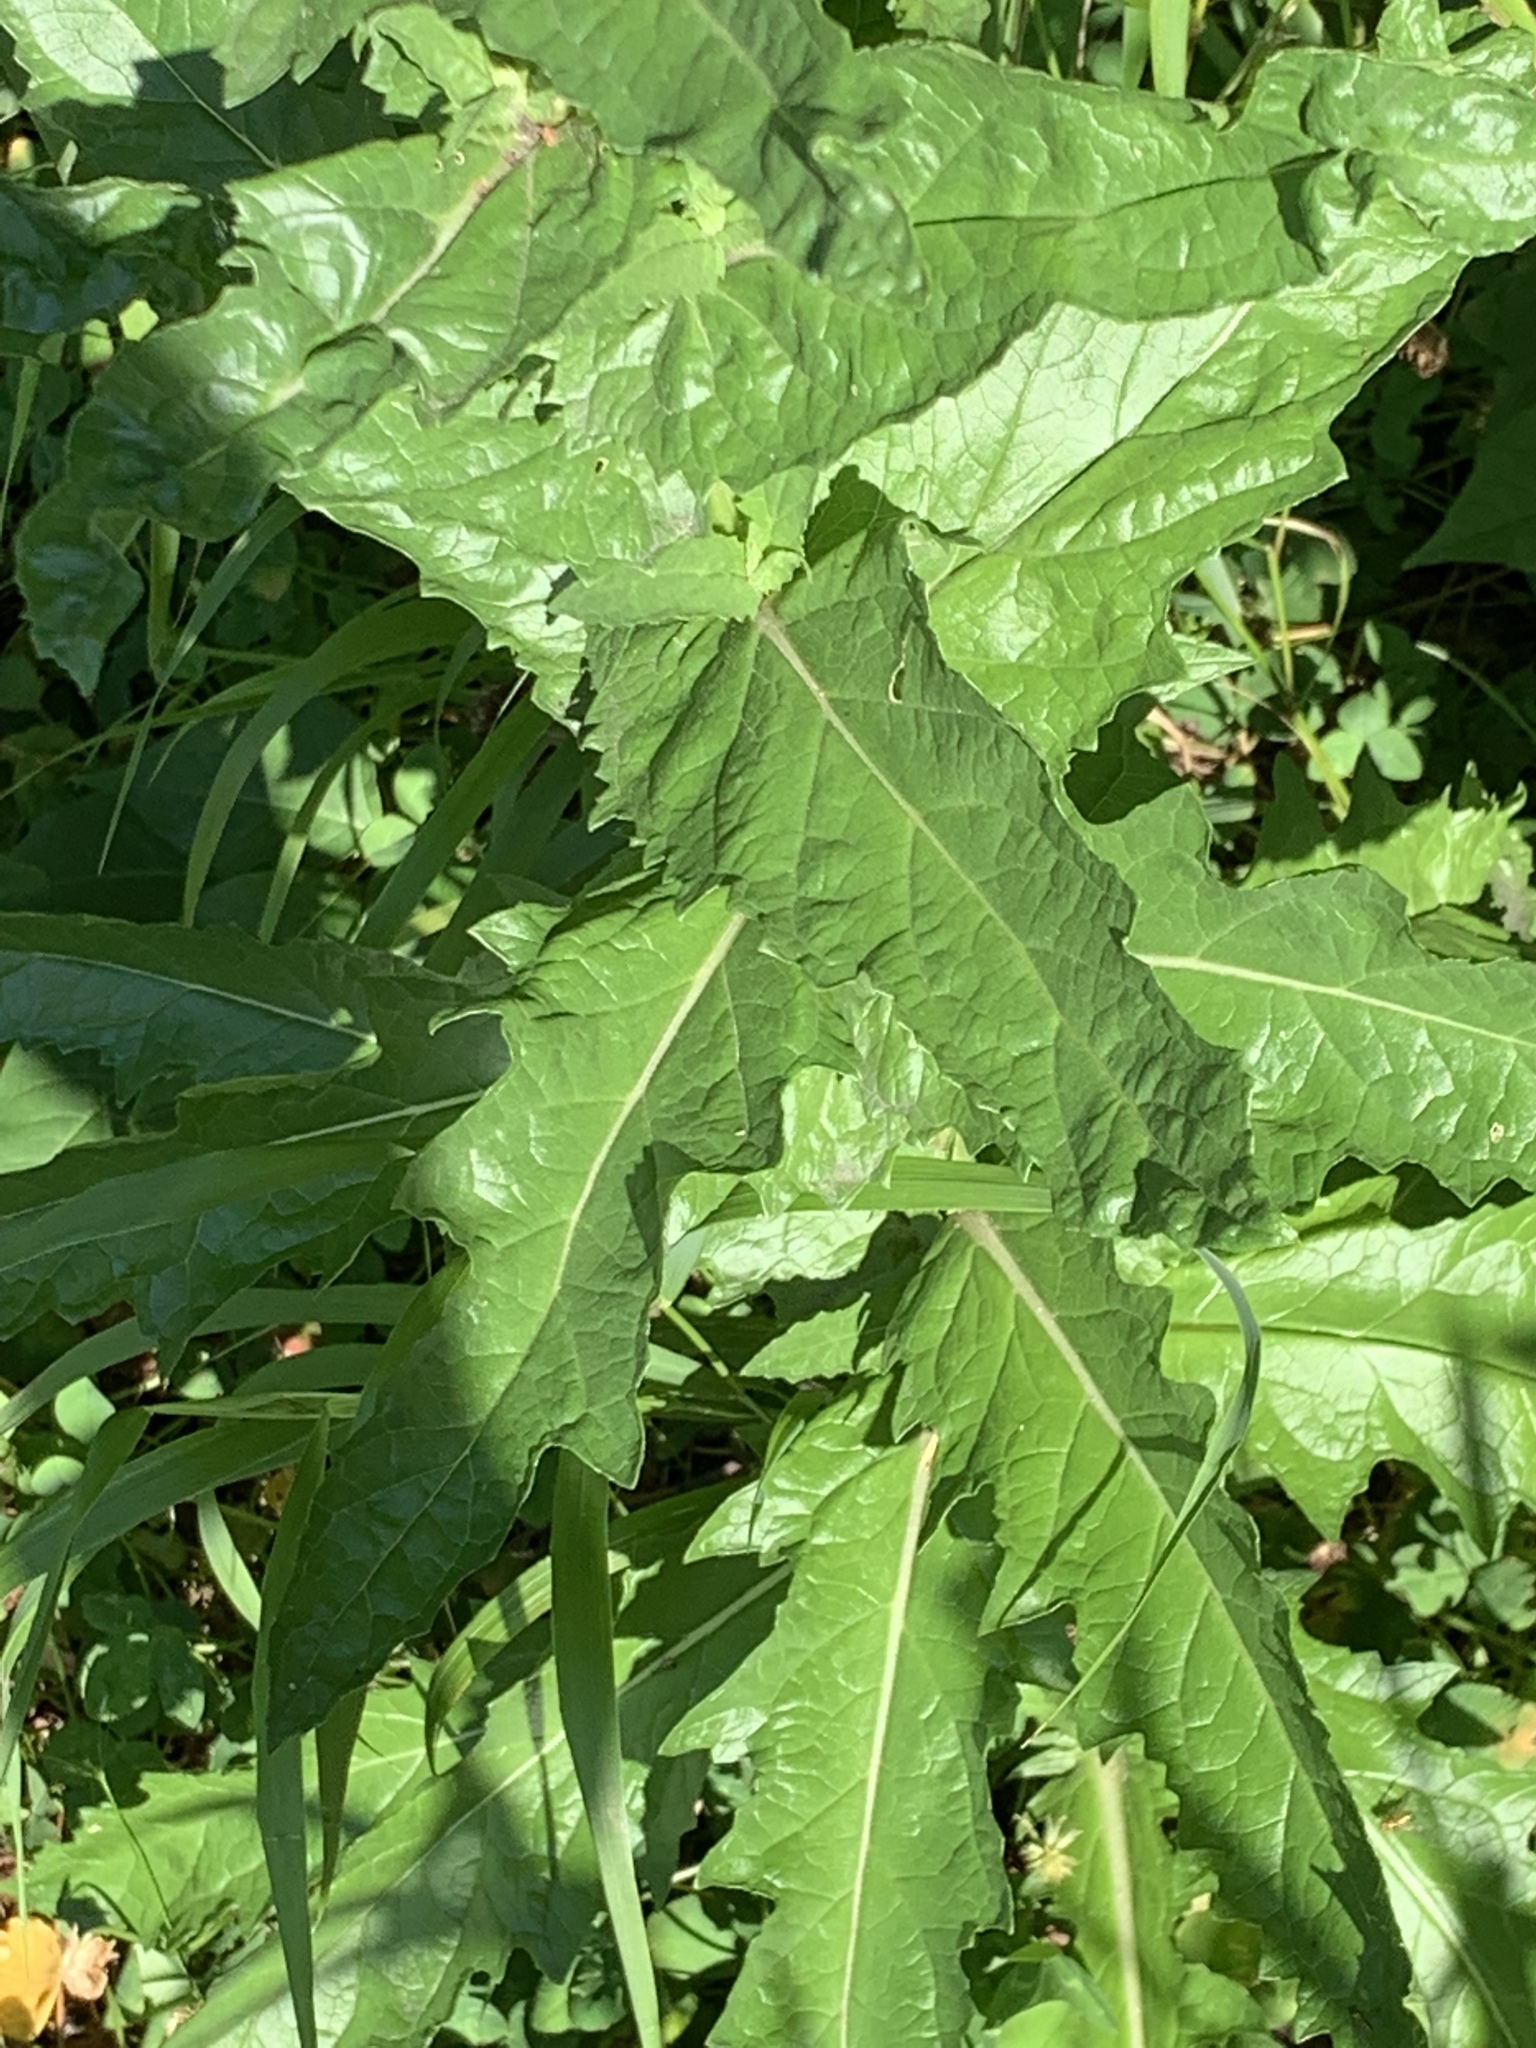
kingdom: Plantae
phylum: Tracheophyta
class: Magnoliopsida
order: Lamiales
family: Scrophulariaceae
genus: Verbascum
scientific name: Verbascum blattaria
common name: Moth mullein
